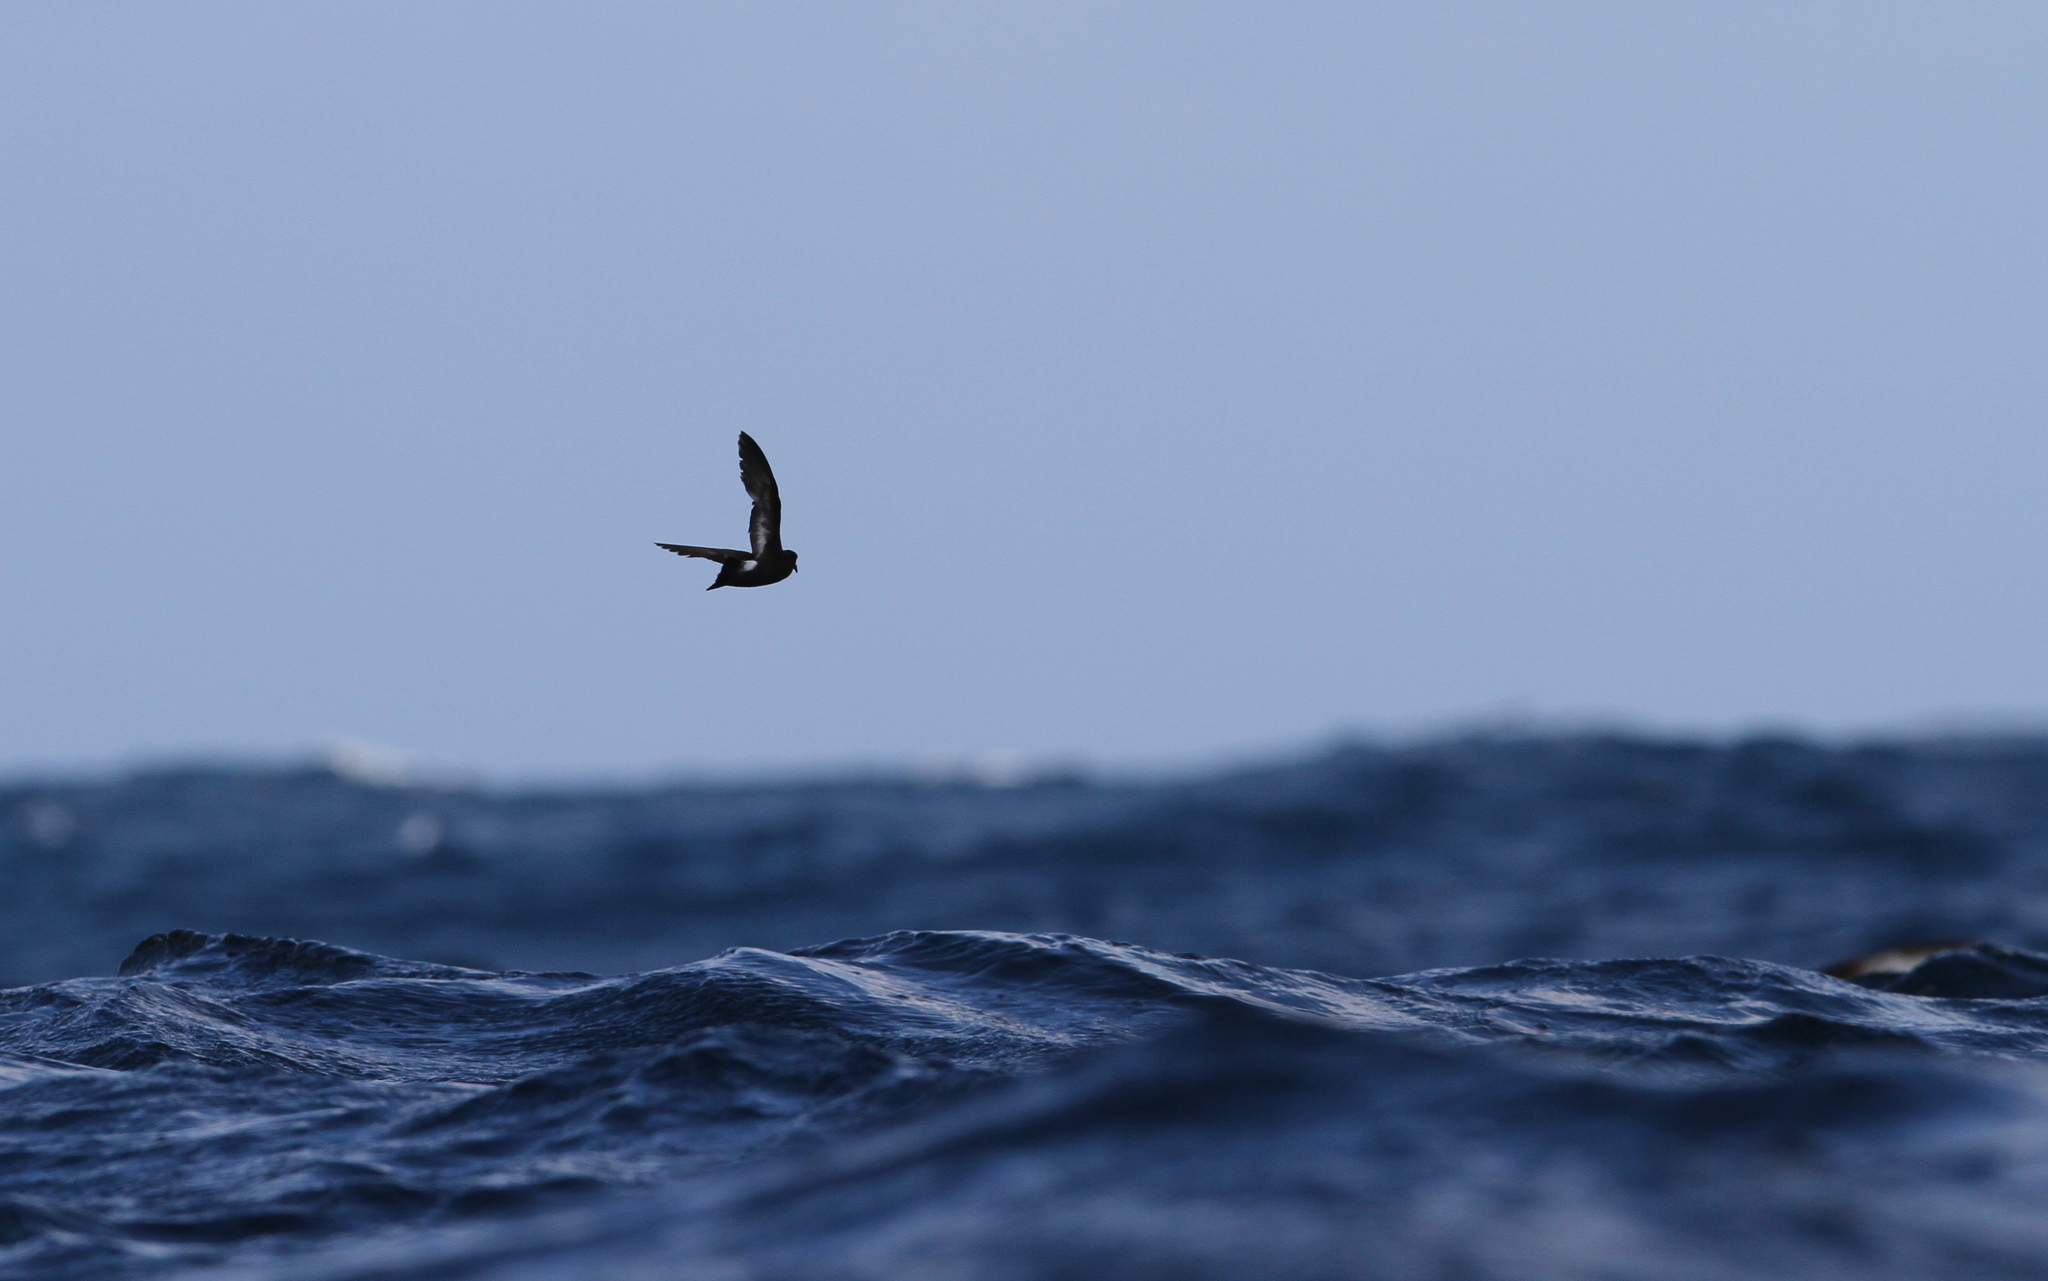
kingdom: Animalia
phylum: Chordata
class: Aves
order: Procellariiformes
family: Hydrobatidae
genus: Hydrobates
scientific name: Hydrobates pelagicus
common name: European storm-petrel
